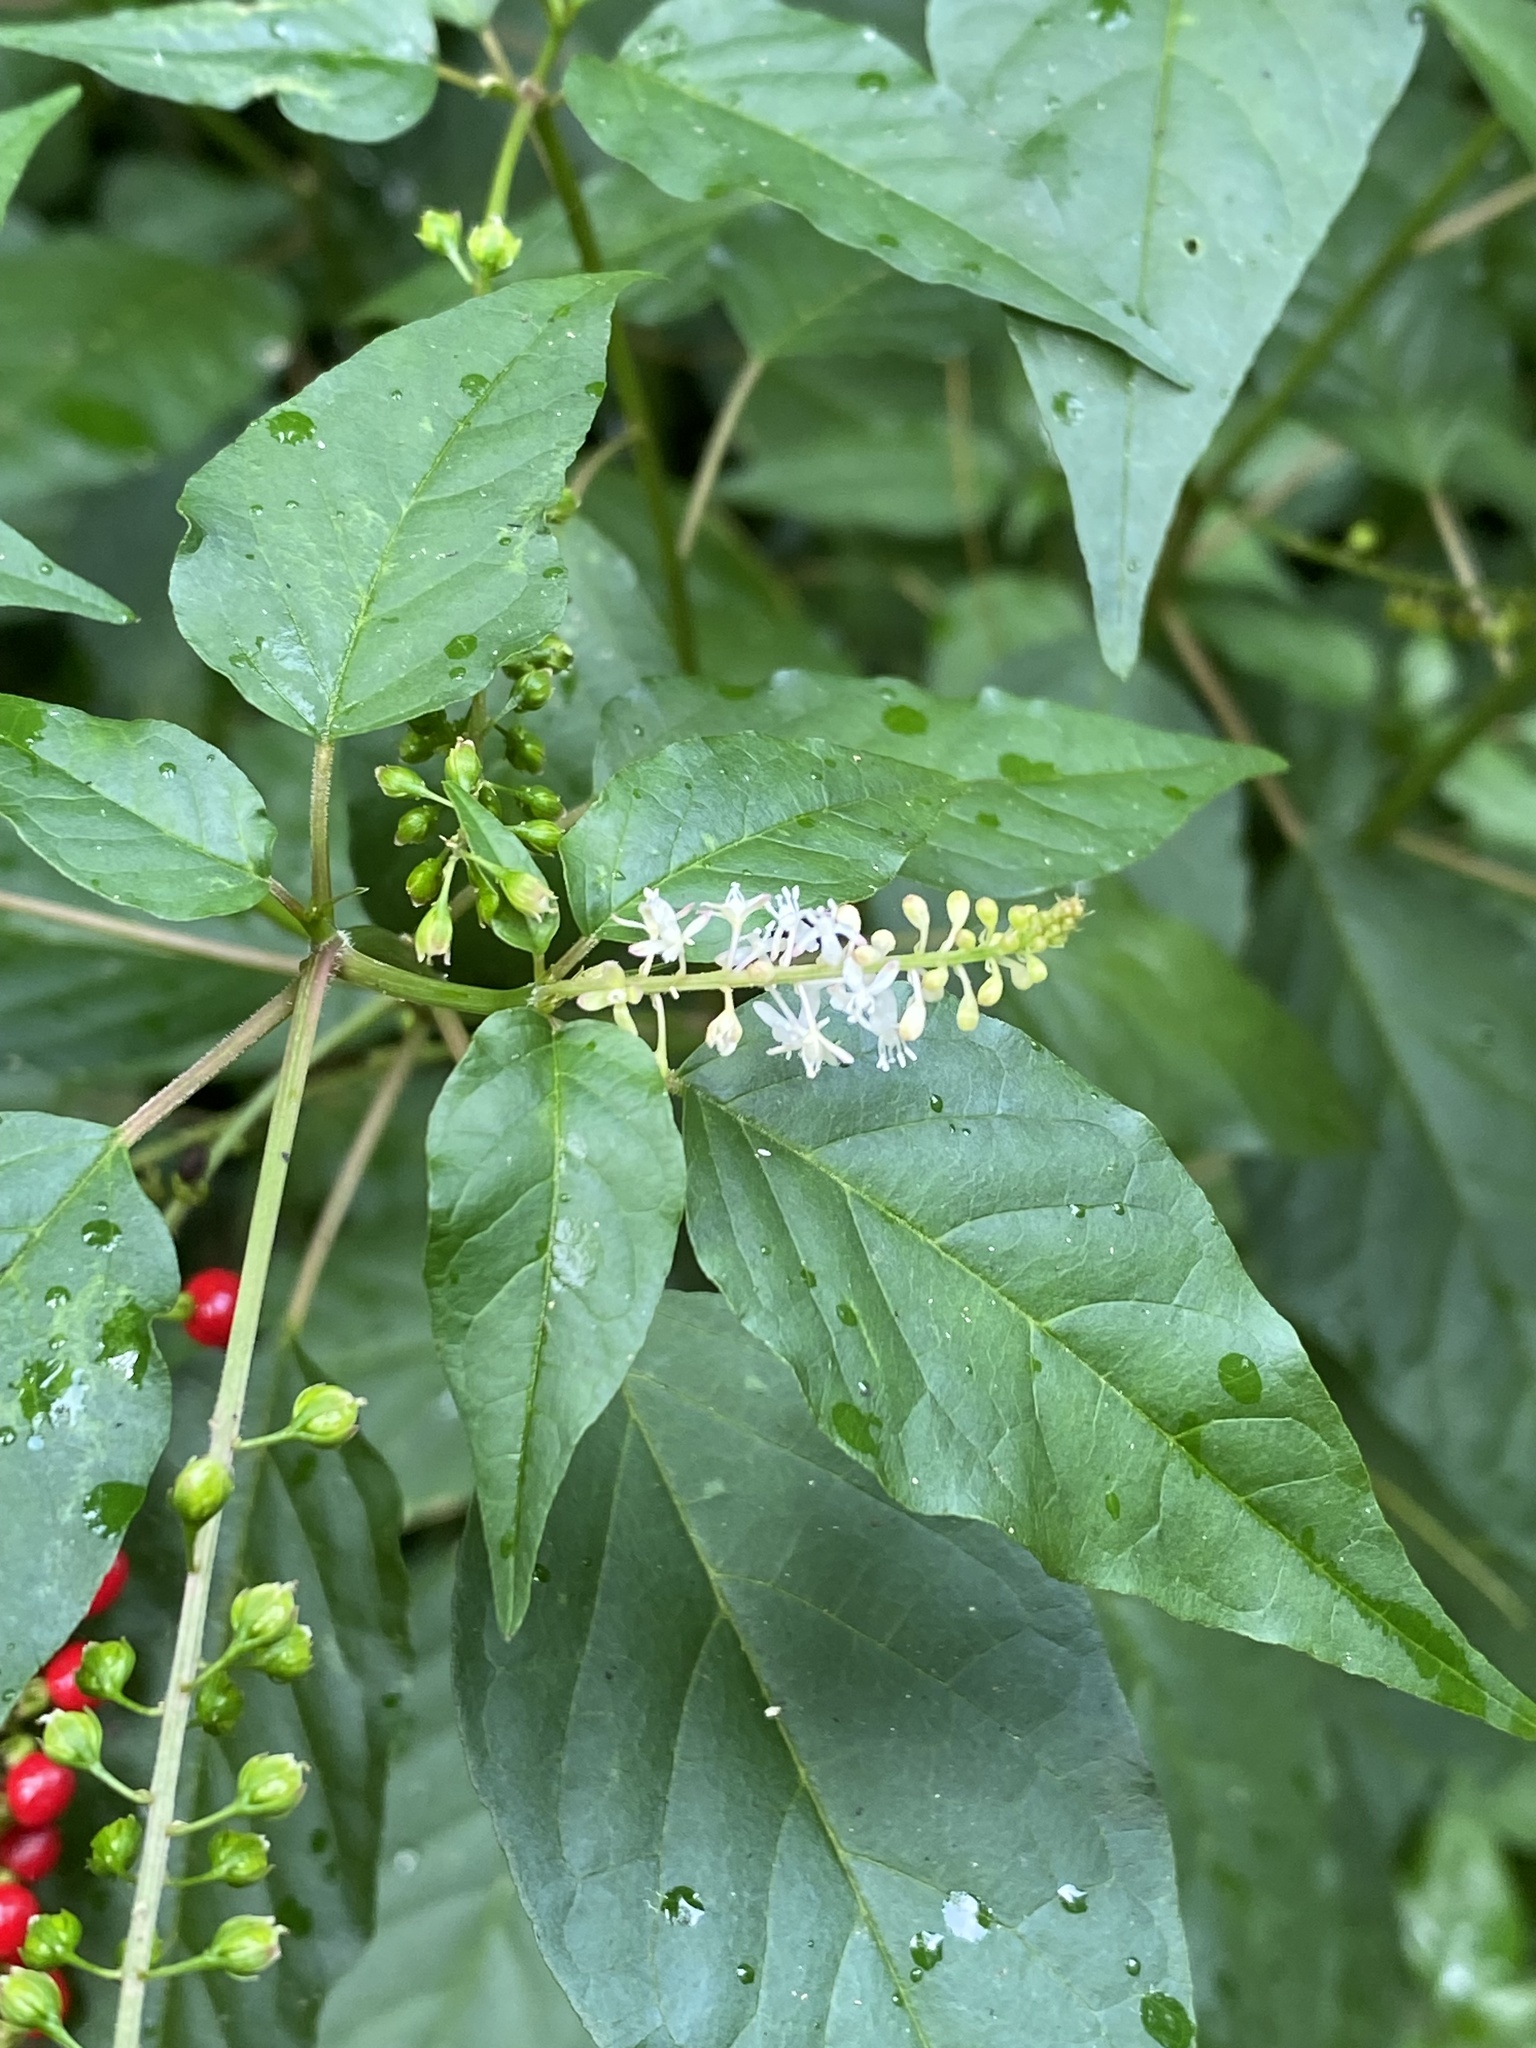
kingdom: Plantae
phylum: Tracheophyta
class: Magnoliopsida
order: Caryophyllales
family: Phytolaccaceae
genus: Rivina
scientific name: Rivina humilis
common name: Rougeplant
